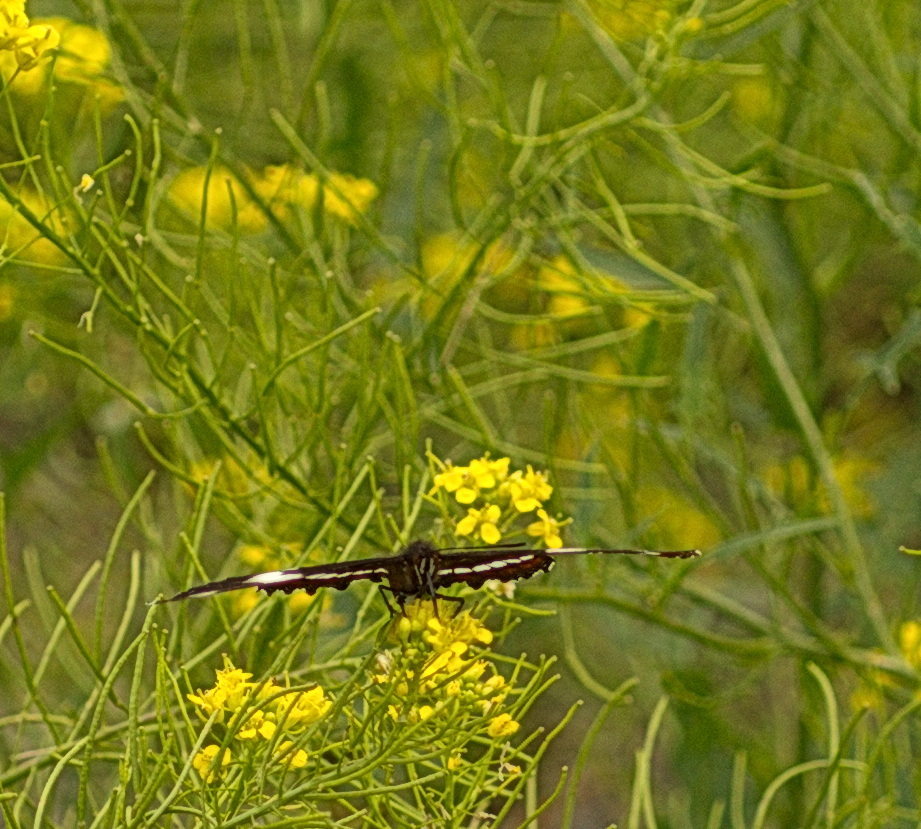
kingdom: Animalia
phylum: Arthropoda
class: Insecta
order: Lepidoptera
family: Nymphalidae
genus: Limenitis
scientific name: Limenitis arthemis
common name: Red-spotted admiral
